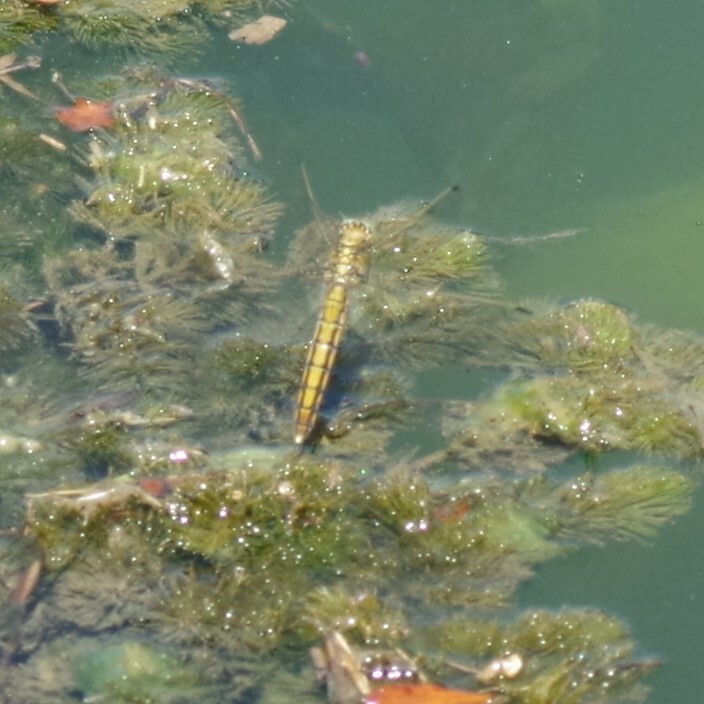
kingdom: Animalia
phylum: Arthropoda
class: Insecta
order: Odonata
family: Libellulidae
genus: Orthetrum
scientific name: Orthetrum cancellatum
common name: Black-tailed skimmer
